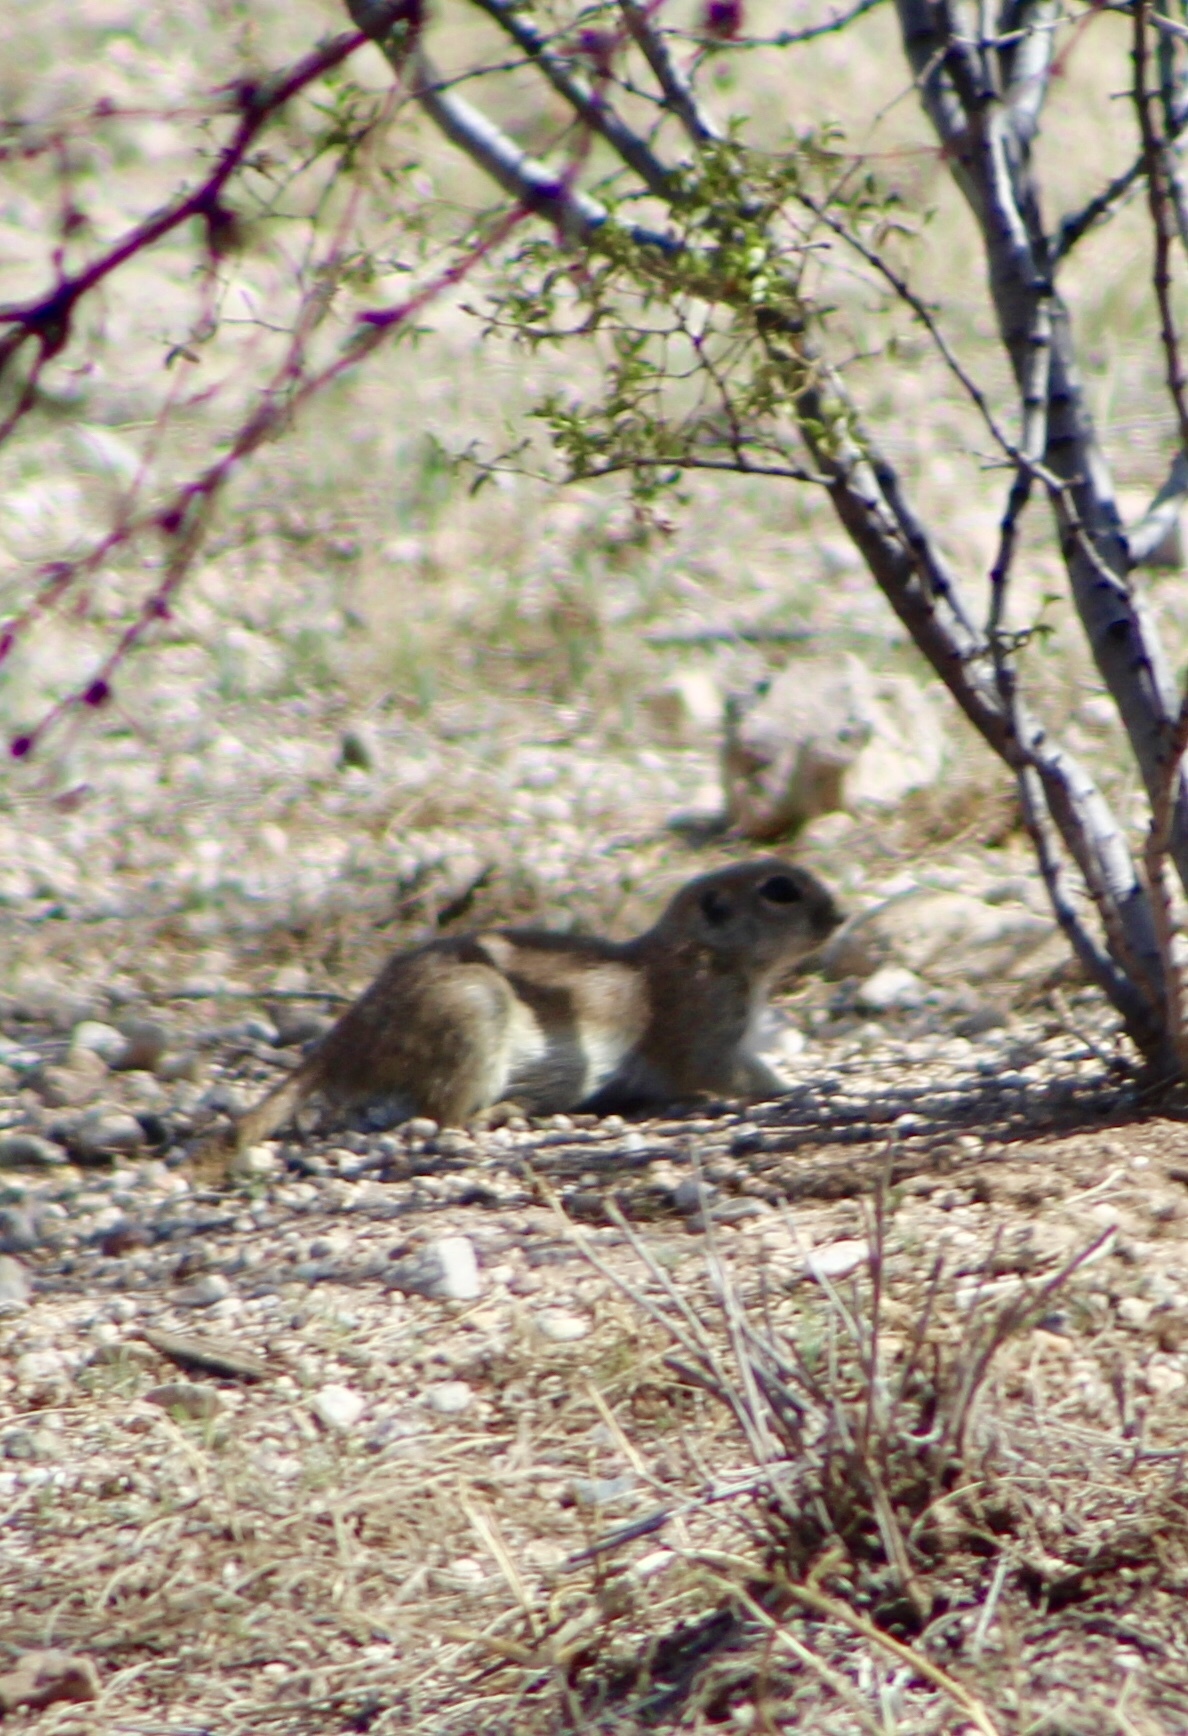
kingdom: Animalia
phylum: Chordata
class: Mammalia
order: Rodentia
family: Sciuridae
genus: Xerospermophilus
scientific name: Xerospermophilus tereticaudus
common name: Round-tailed ground squirrel
